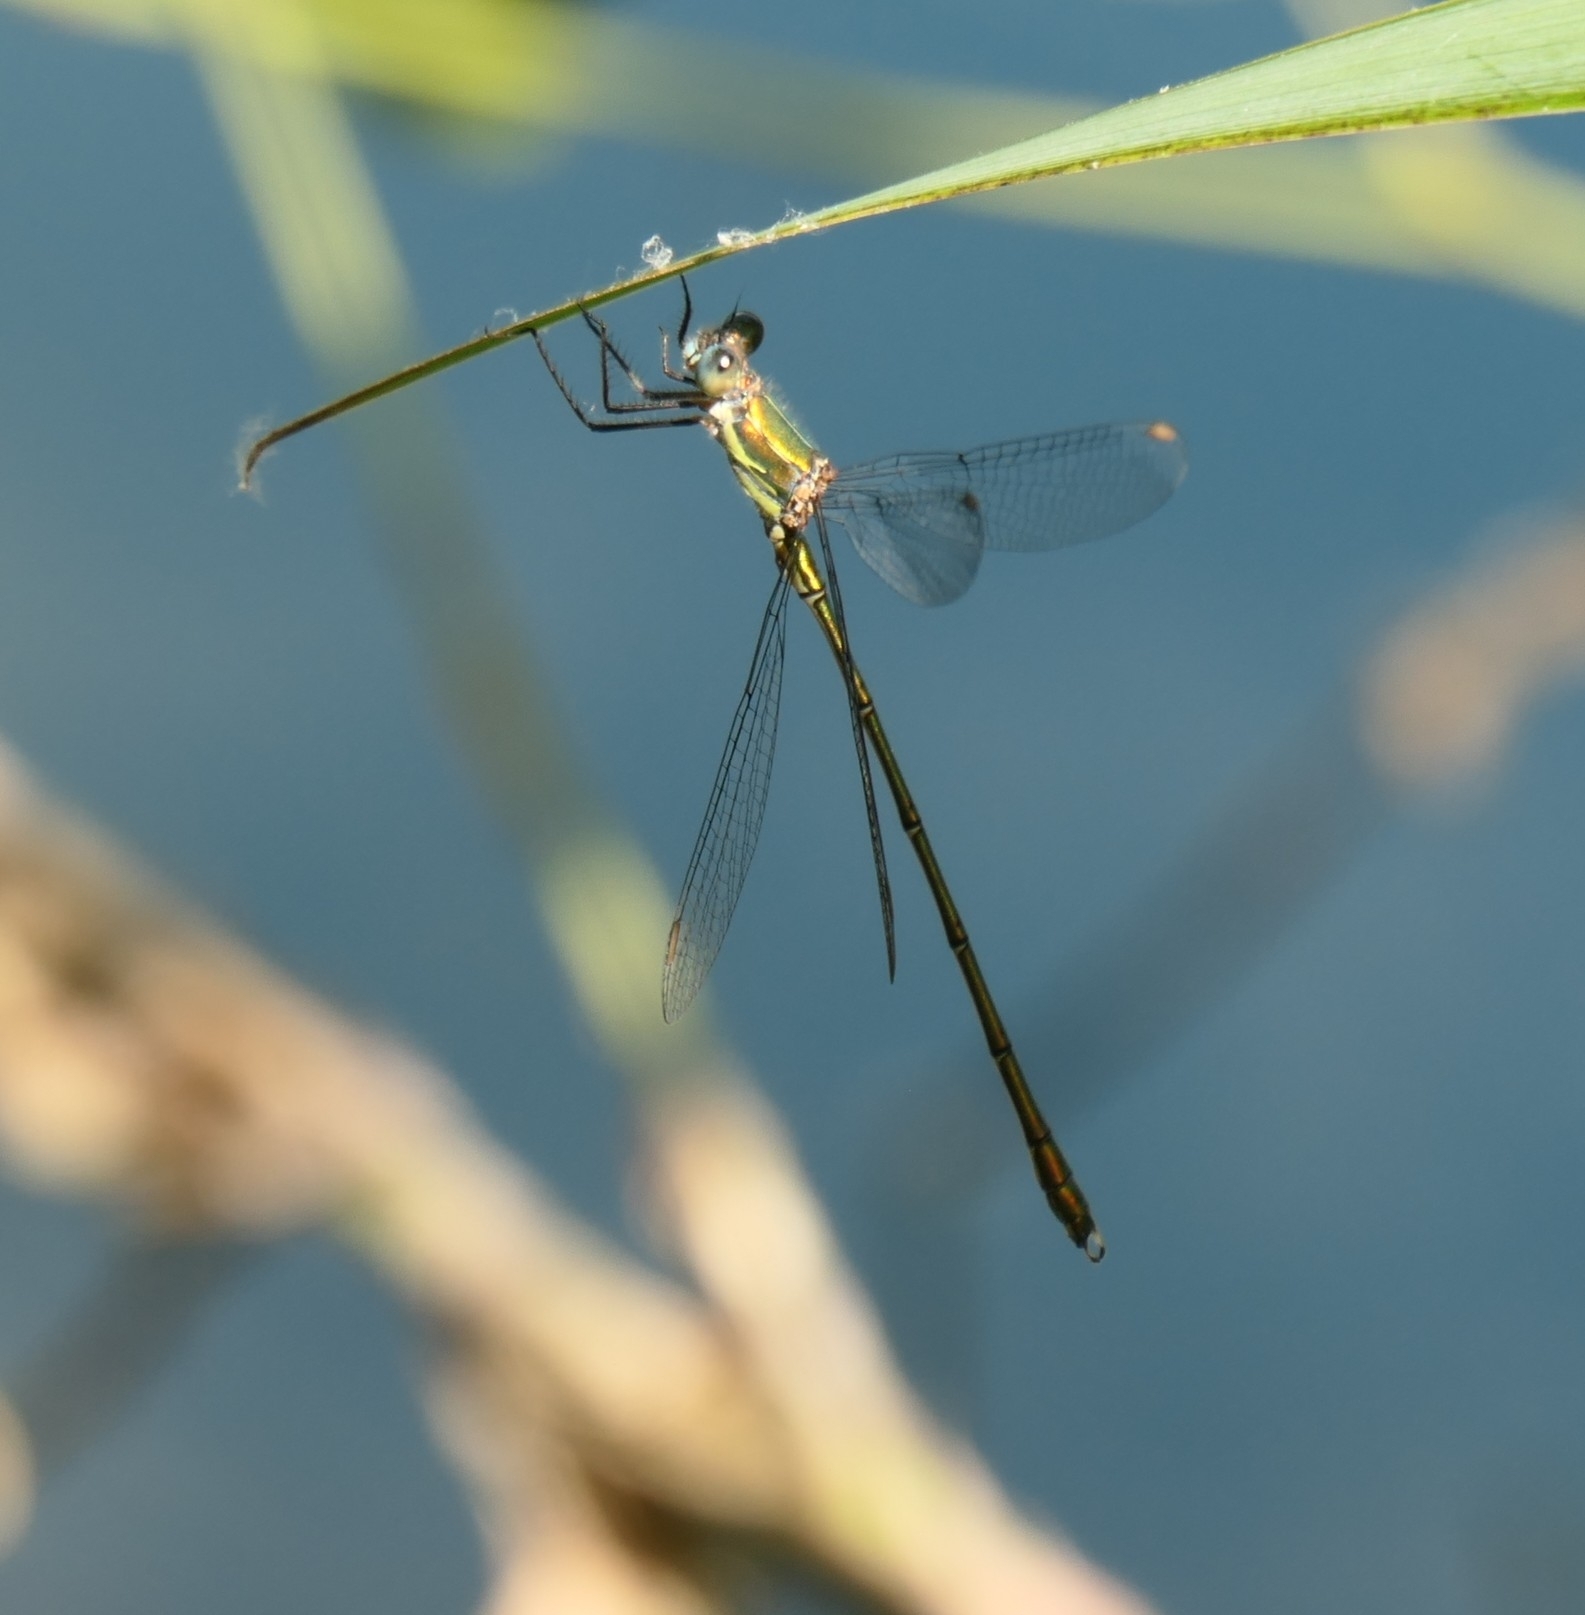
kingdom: Animalia
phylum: Arthropoda
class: Insecta
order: Odonata
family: Lestidae
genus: Chalcolestes
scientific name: Chalcolestes viridis
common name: Green emerald damselfly
